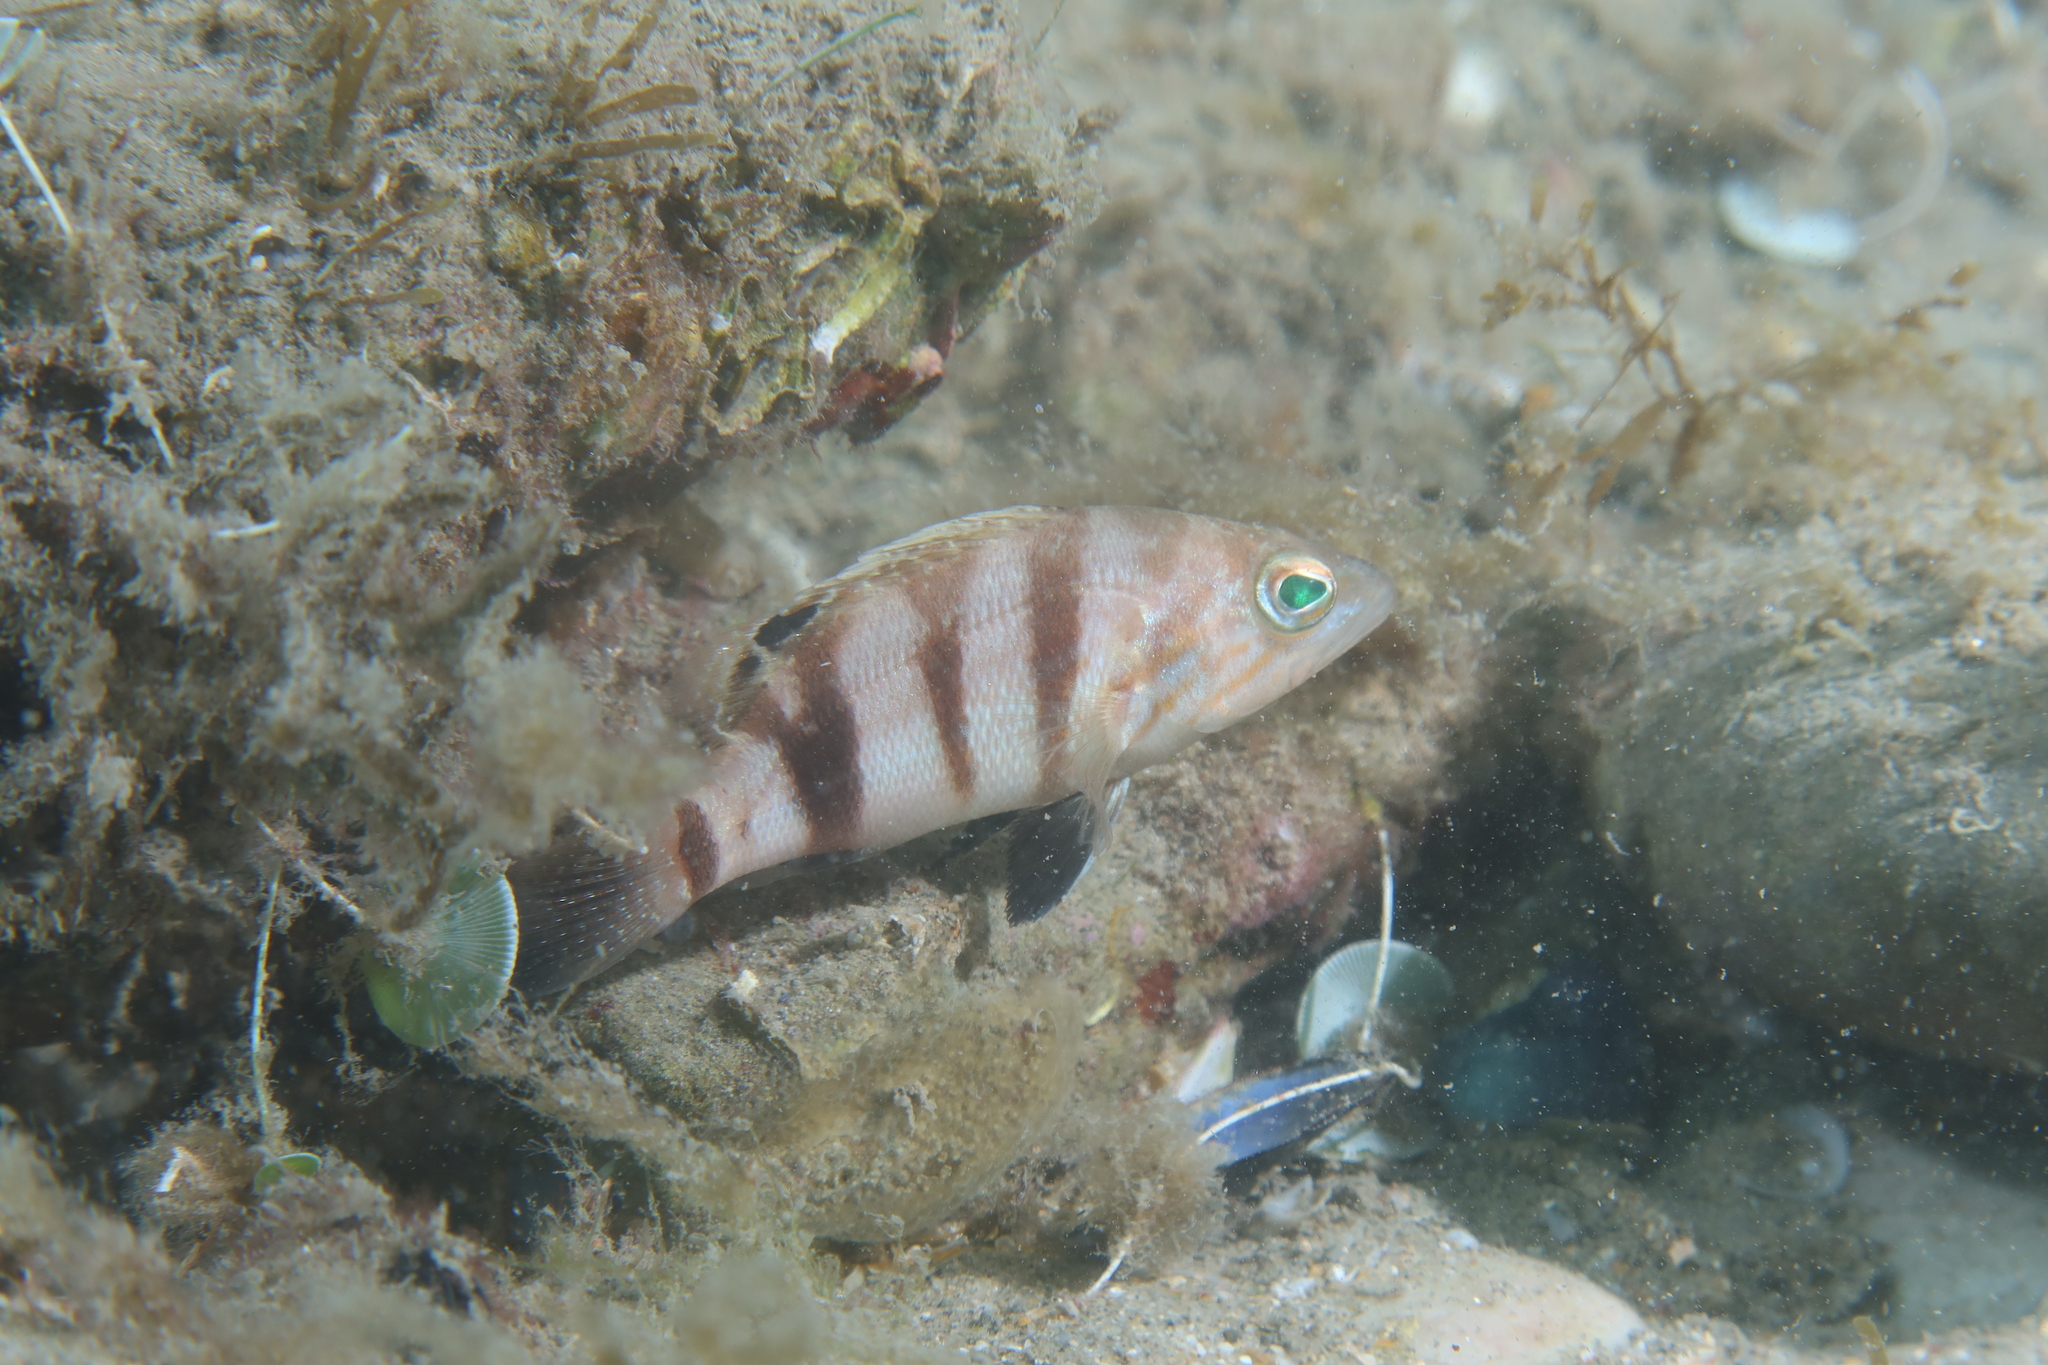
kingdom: Animalia
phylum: Chordata
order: Perciformes
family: Serranidae
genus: Serranus
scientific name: Serranus hepatus
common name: Brown comber
